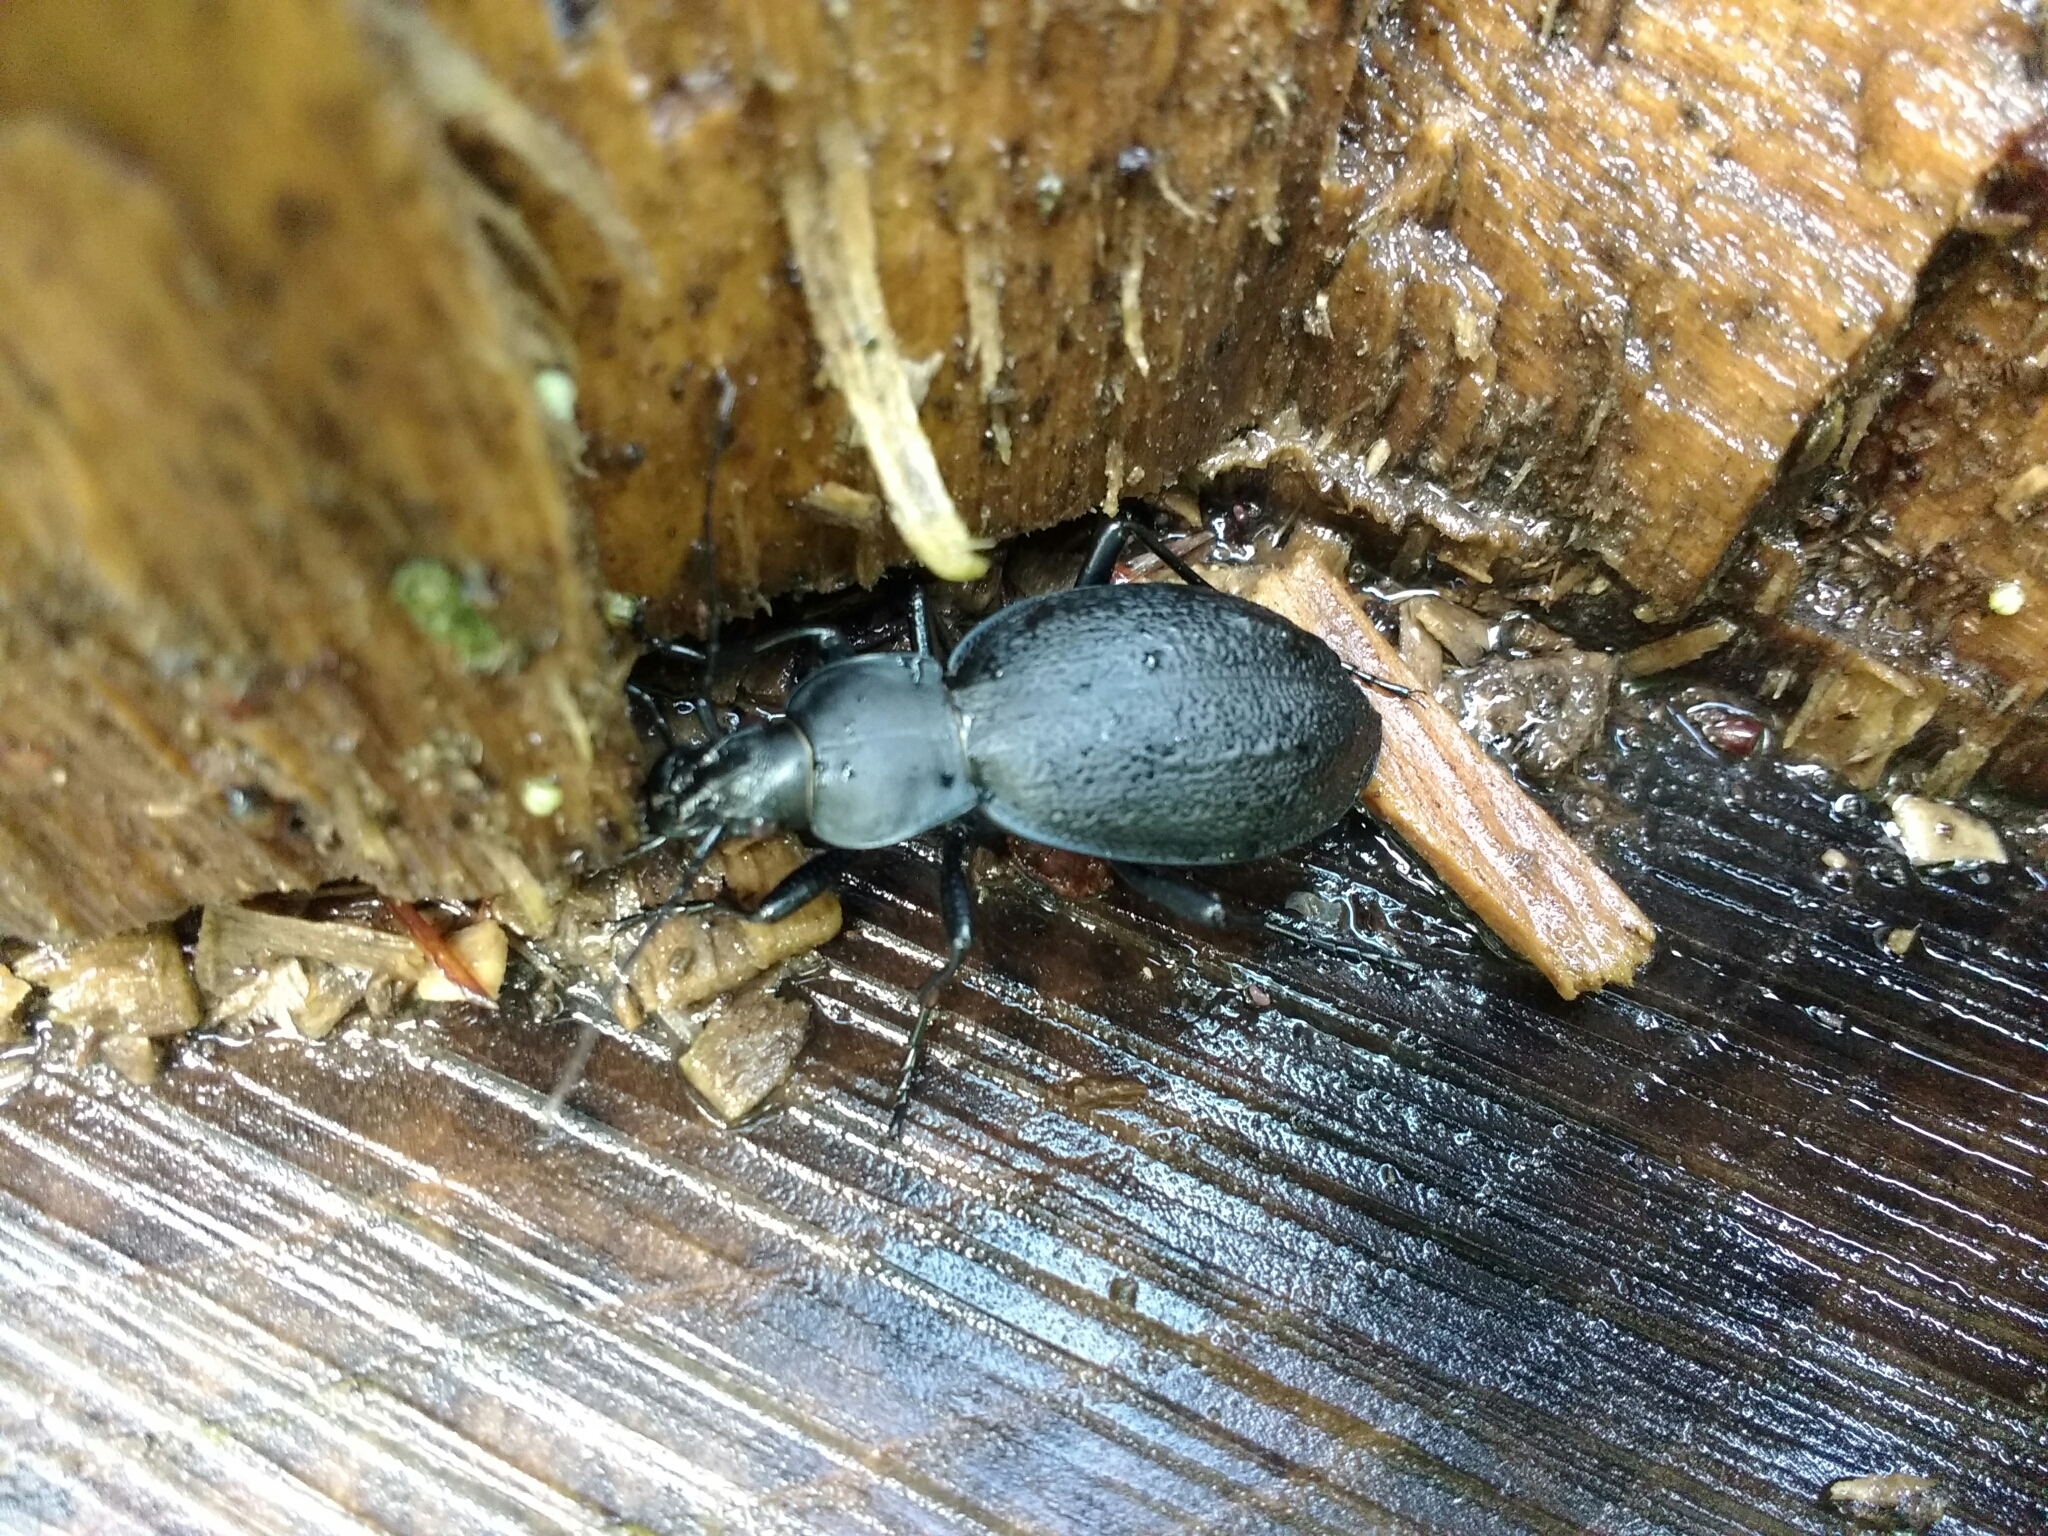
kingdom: Animalia
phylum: Arthropoda
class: Insecta
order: Coleoptera
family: Carabidae
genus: Carabus
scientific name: Carabus coriaceus
